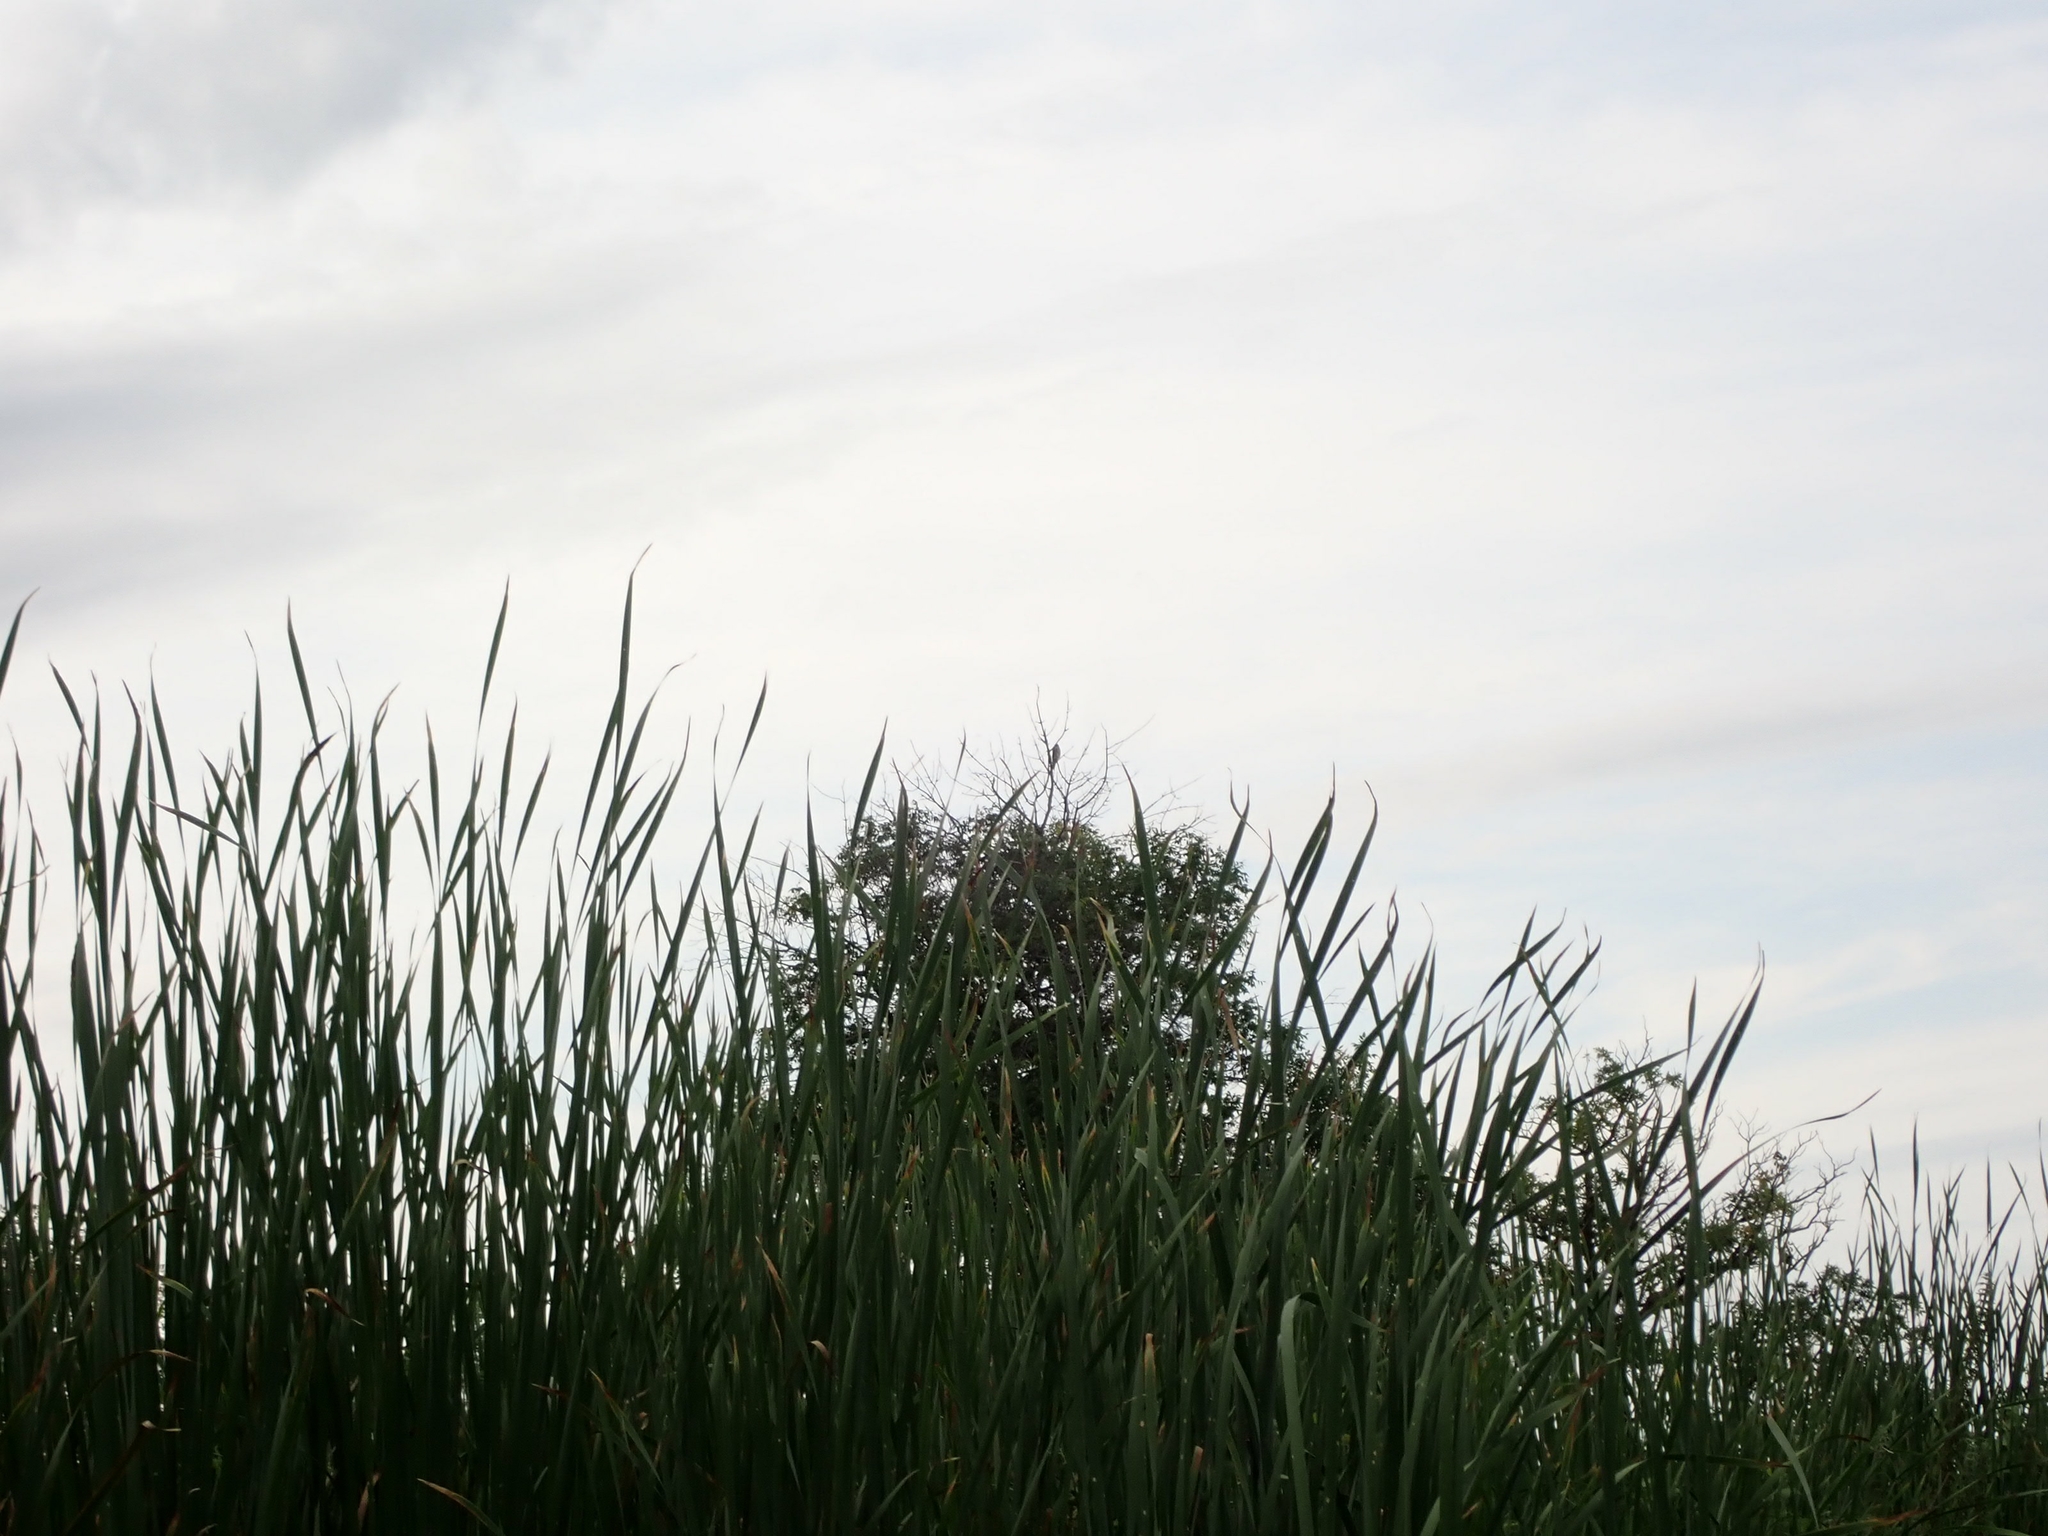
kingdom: Animalia
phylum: Chordata
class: Aves
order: Falconiformes
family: Falconidae
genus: Falco
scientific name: Falco columbarius
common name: Merlin
